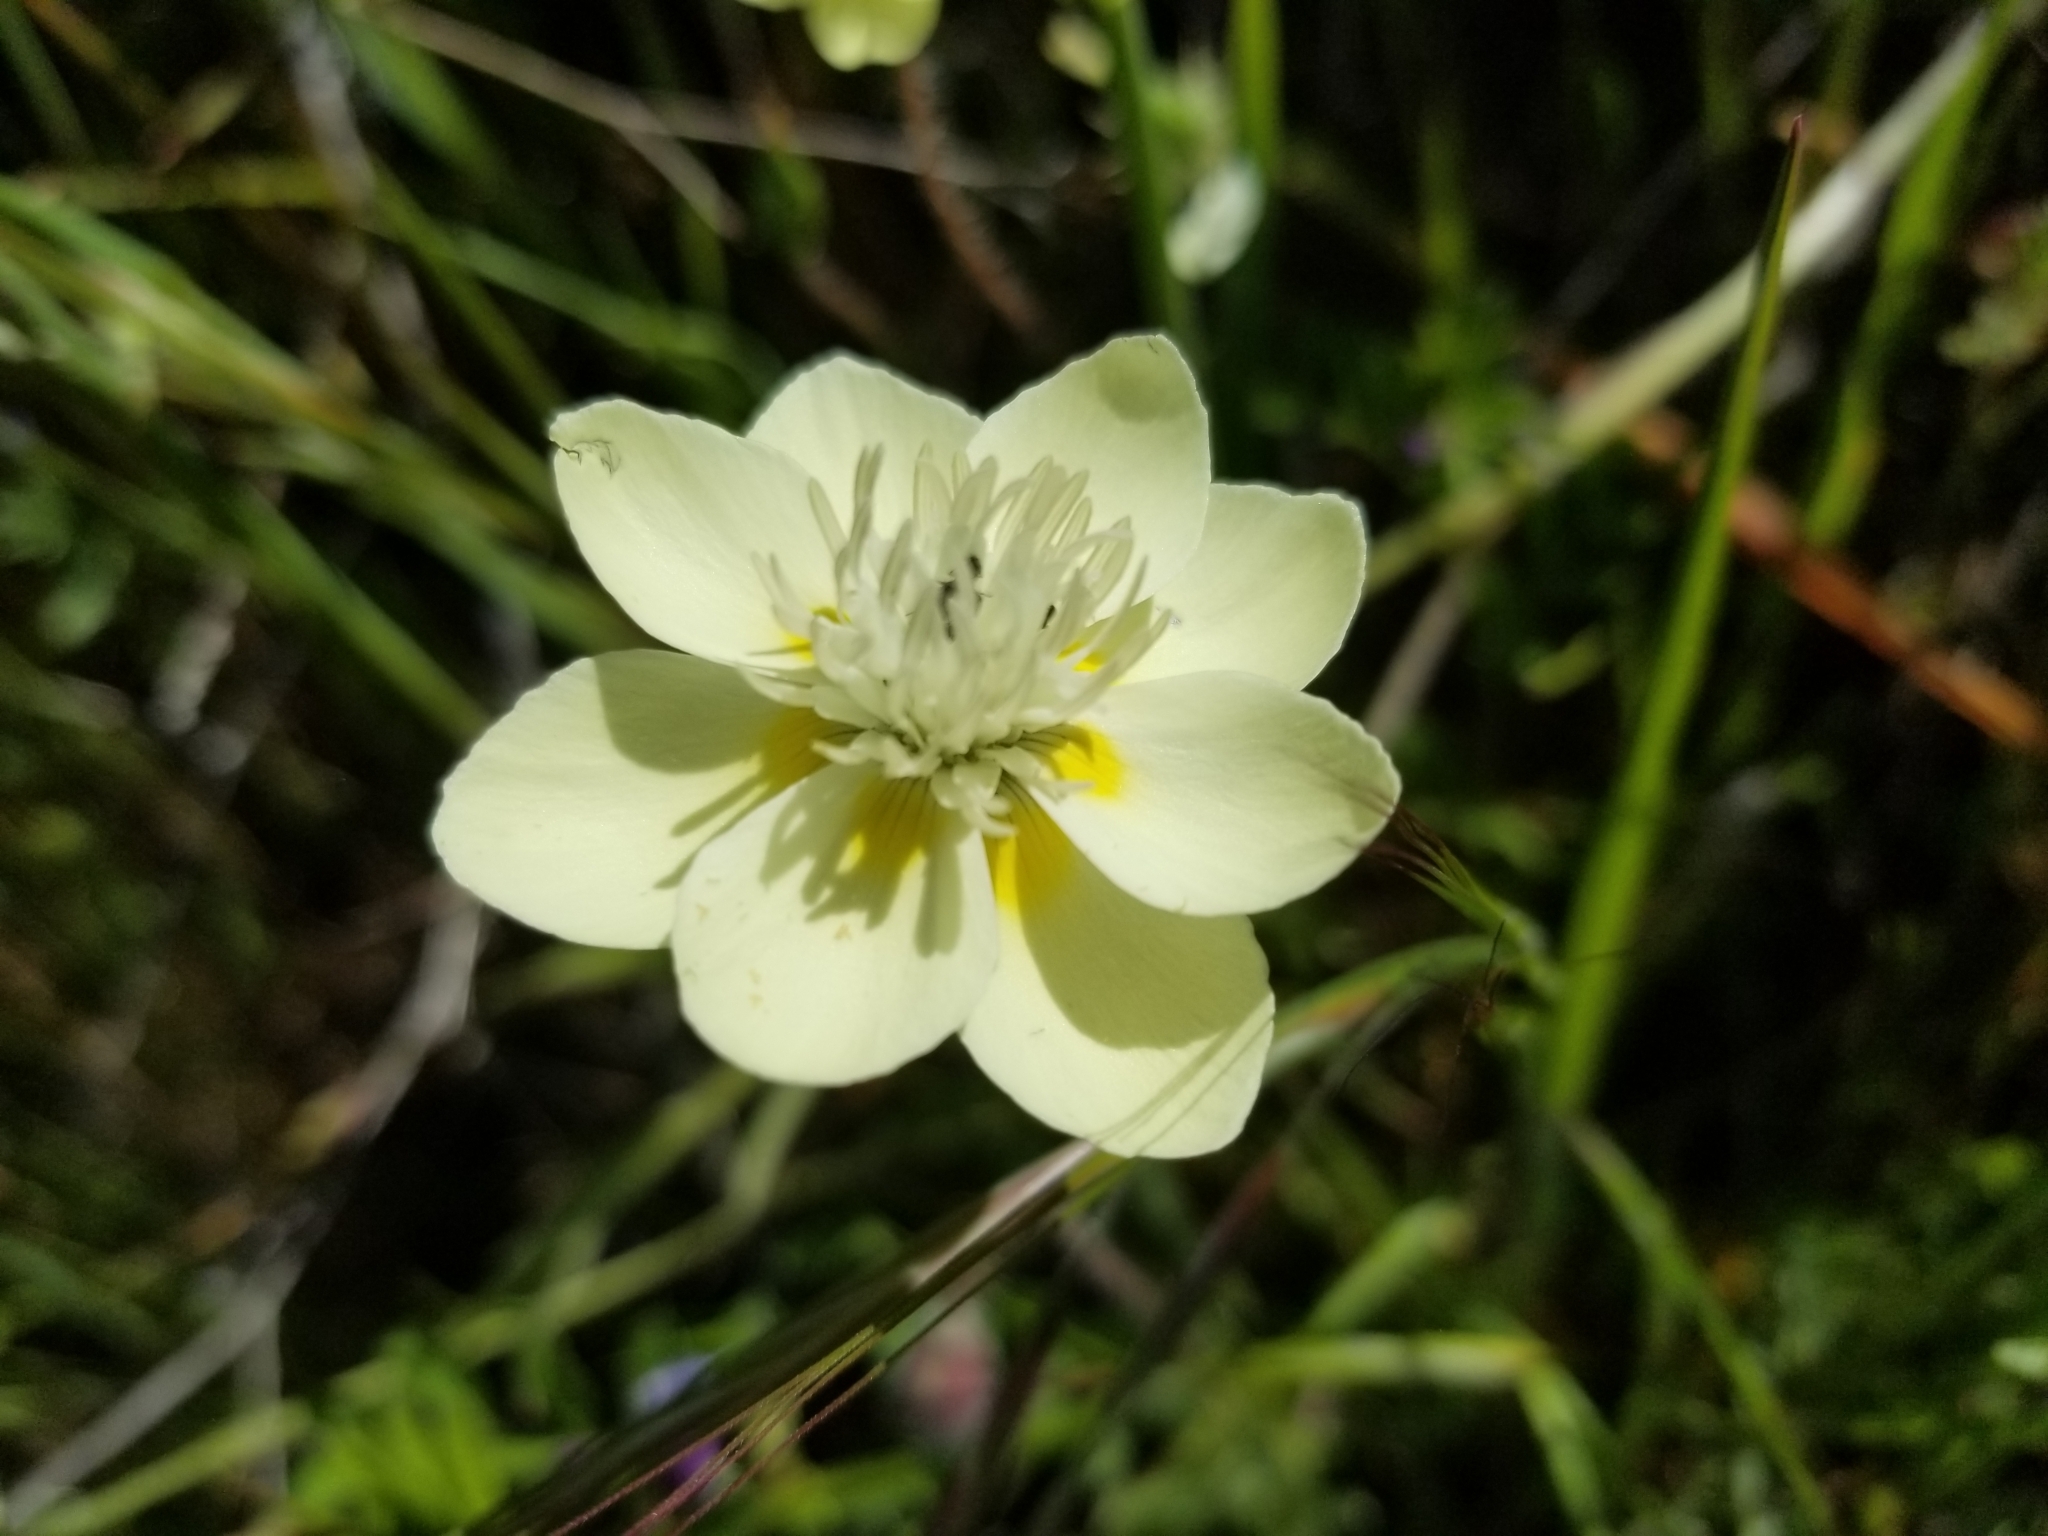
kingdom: Plantae
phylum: Tracheophyta
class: Magnoliopsida
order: Ranunculales
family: Papaveraceae
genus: Platystemon
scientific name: Platystemon californicus
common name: Cream-cups
